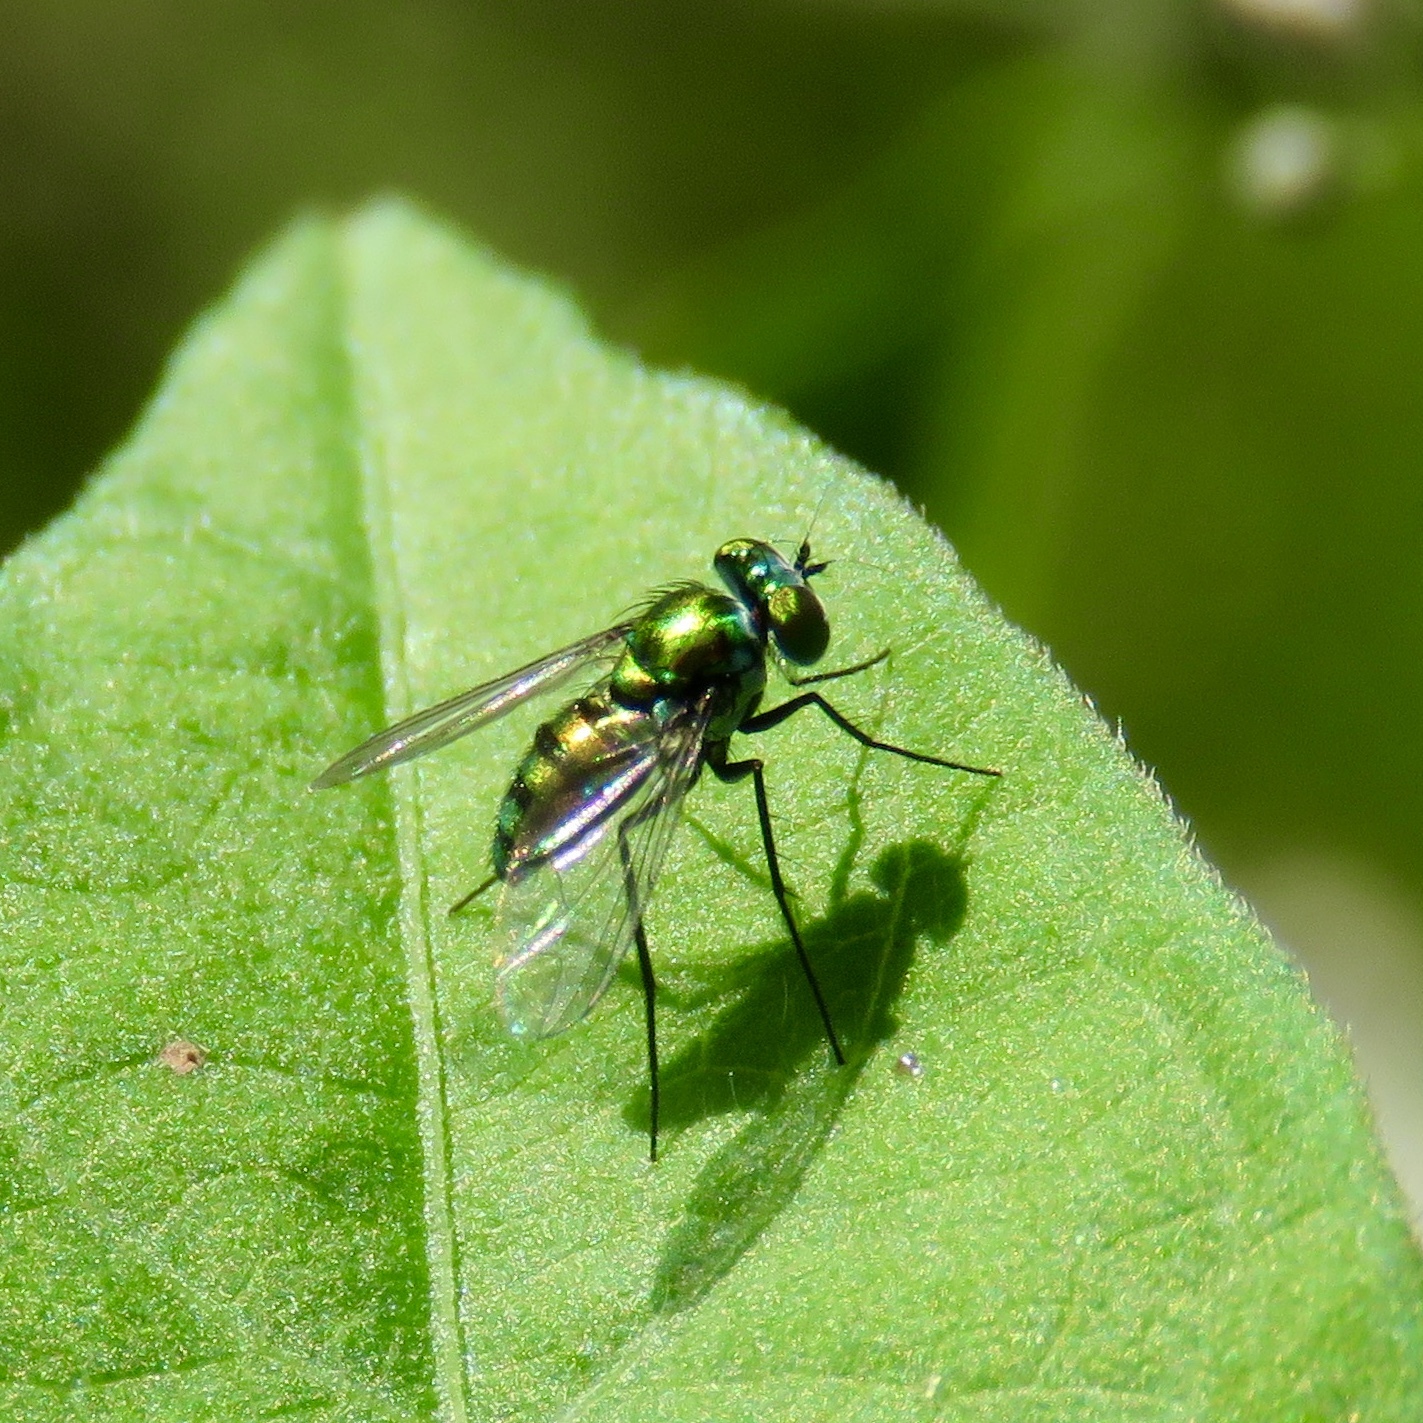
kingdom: Animalia
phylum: Arthropoda
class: Insecta
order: Diptera
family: Dolichopodidae
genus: Condylostylus
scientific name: Condylostylus longicornis
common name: Long-legged fly
